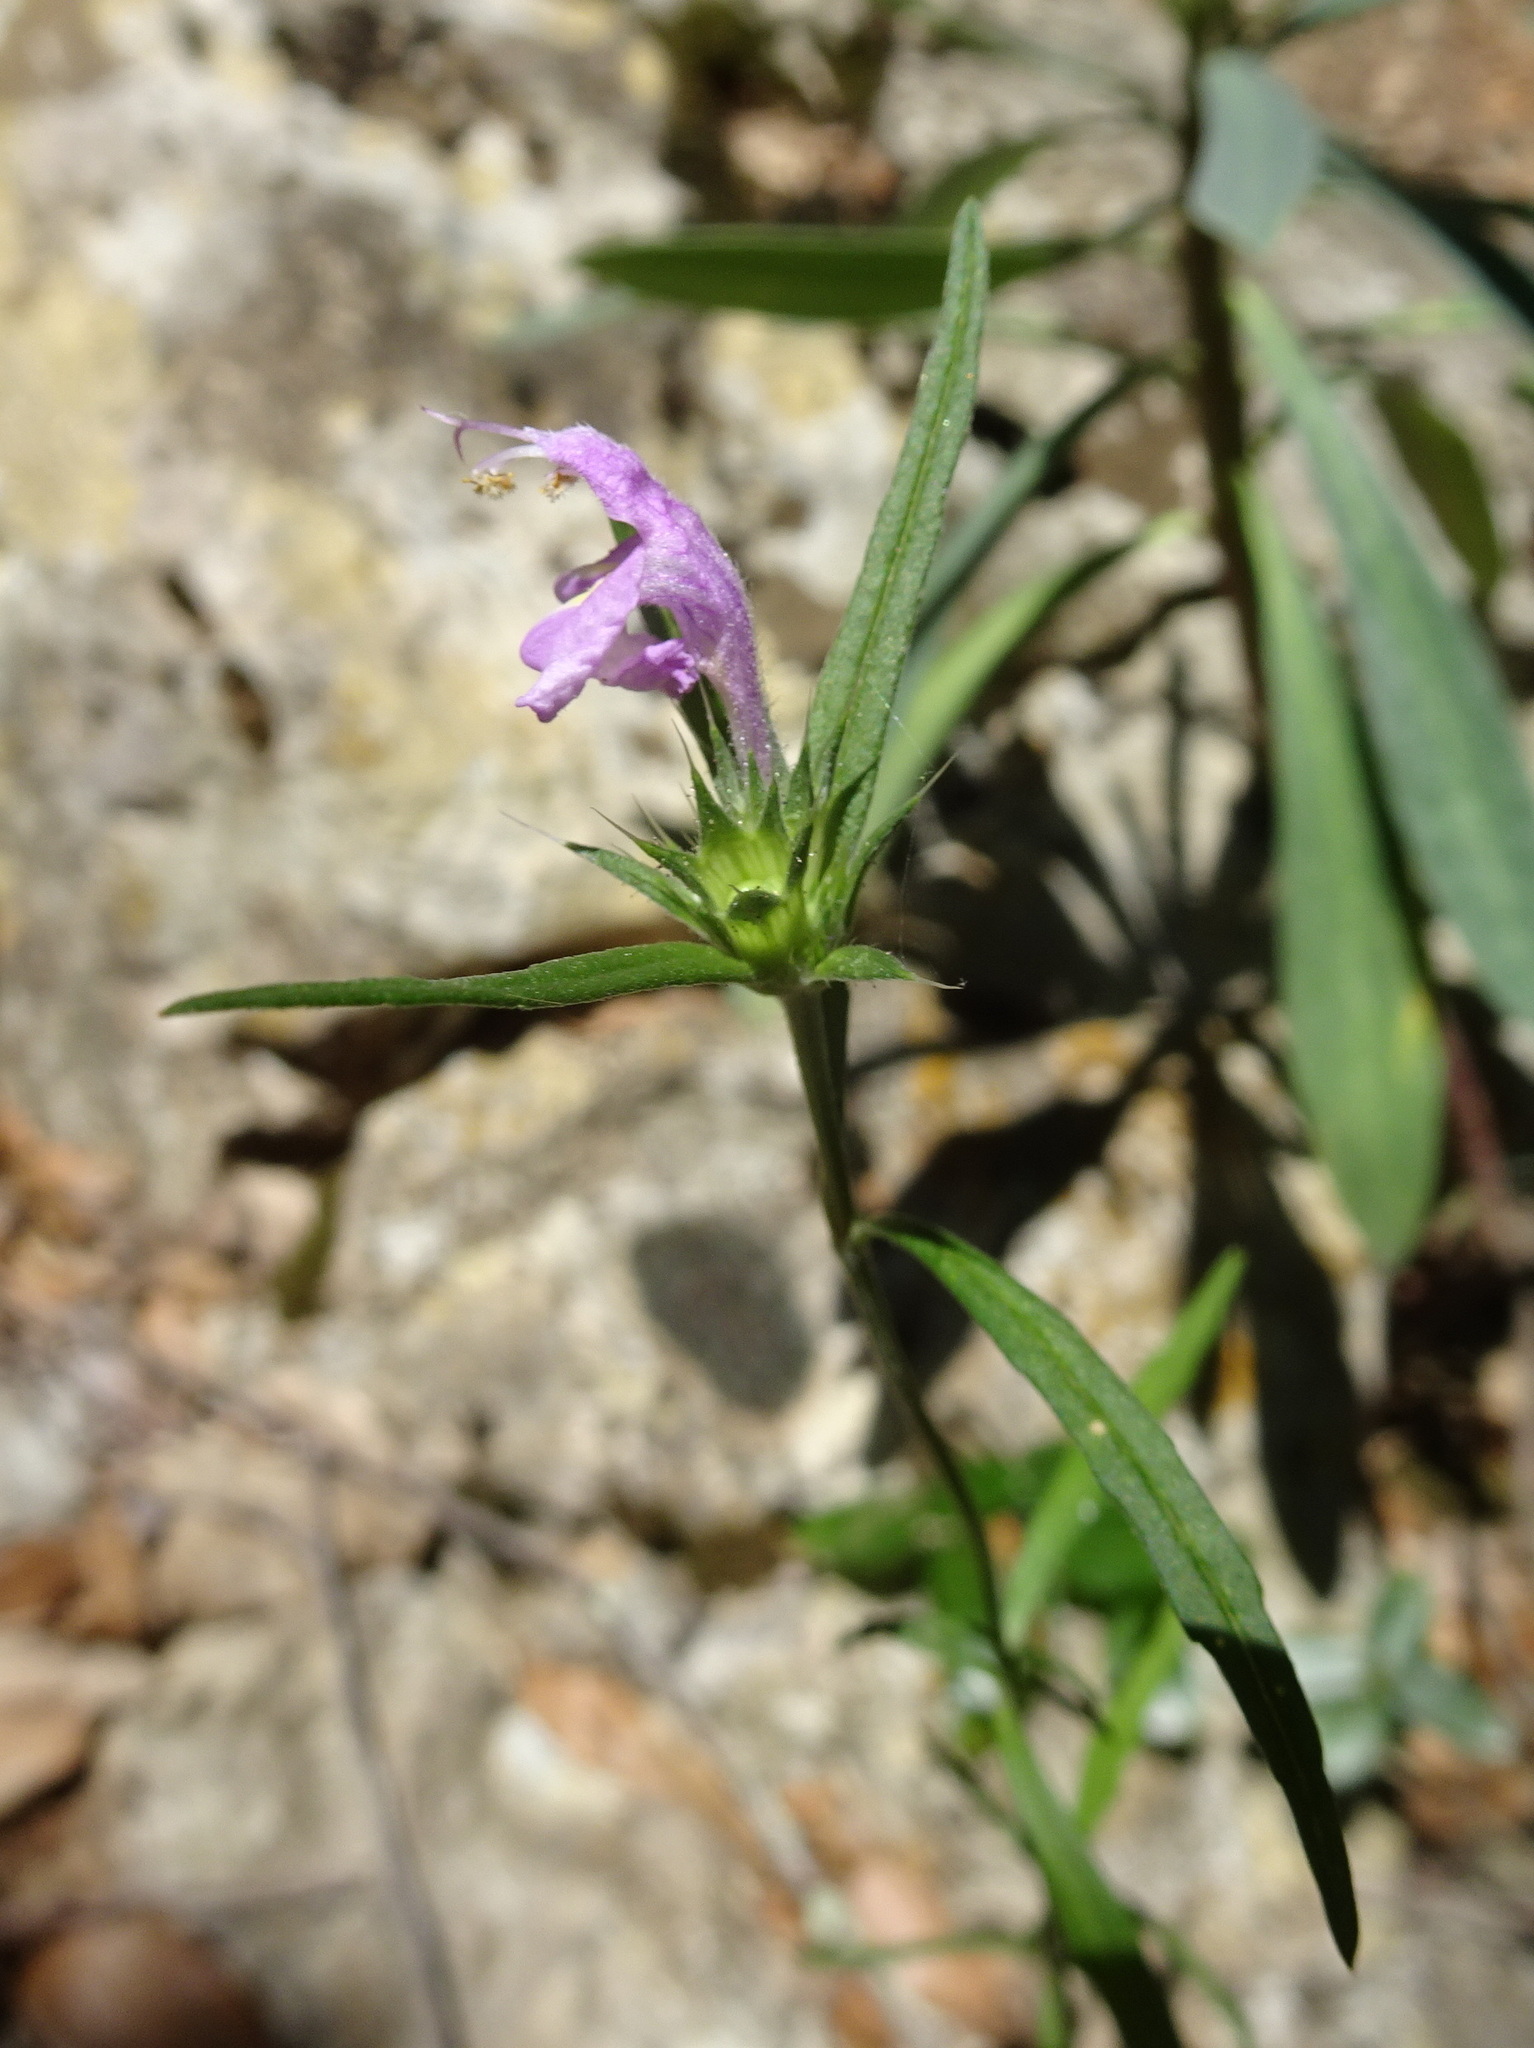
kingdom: Plantae
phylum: Tracheophyta
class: Magnoliopsida
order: Lamiales
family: Lamiaceae
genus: Galeopsis
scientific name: Galeopsis ladanum
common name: Broad-leaved hemp-nettle
